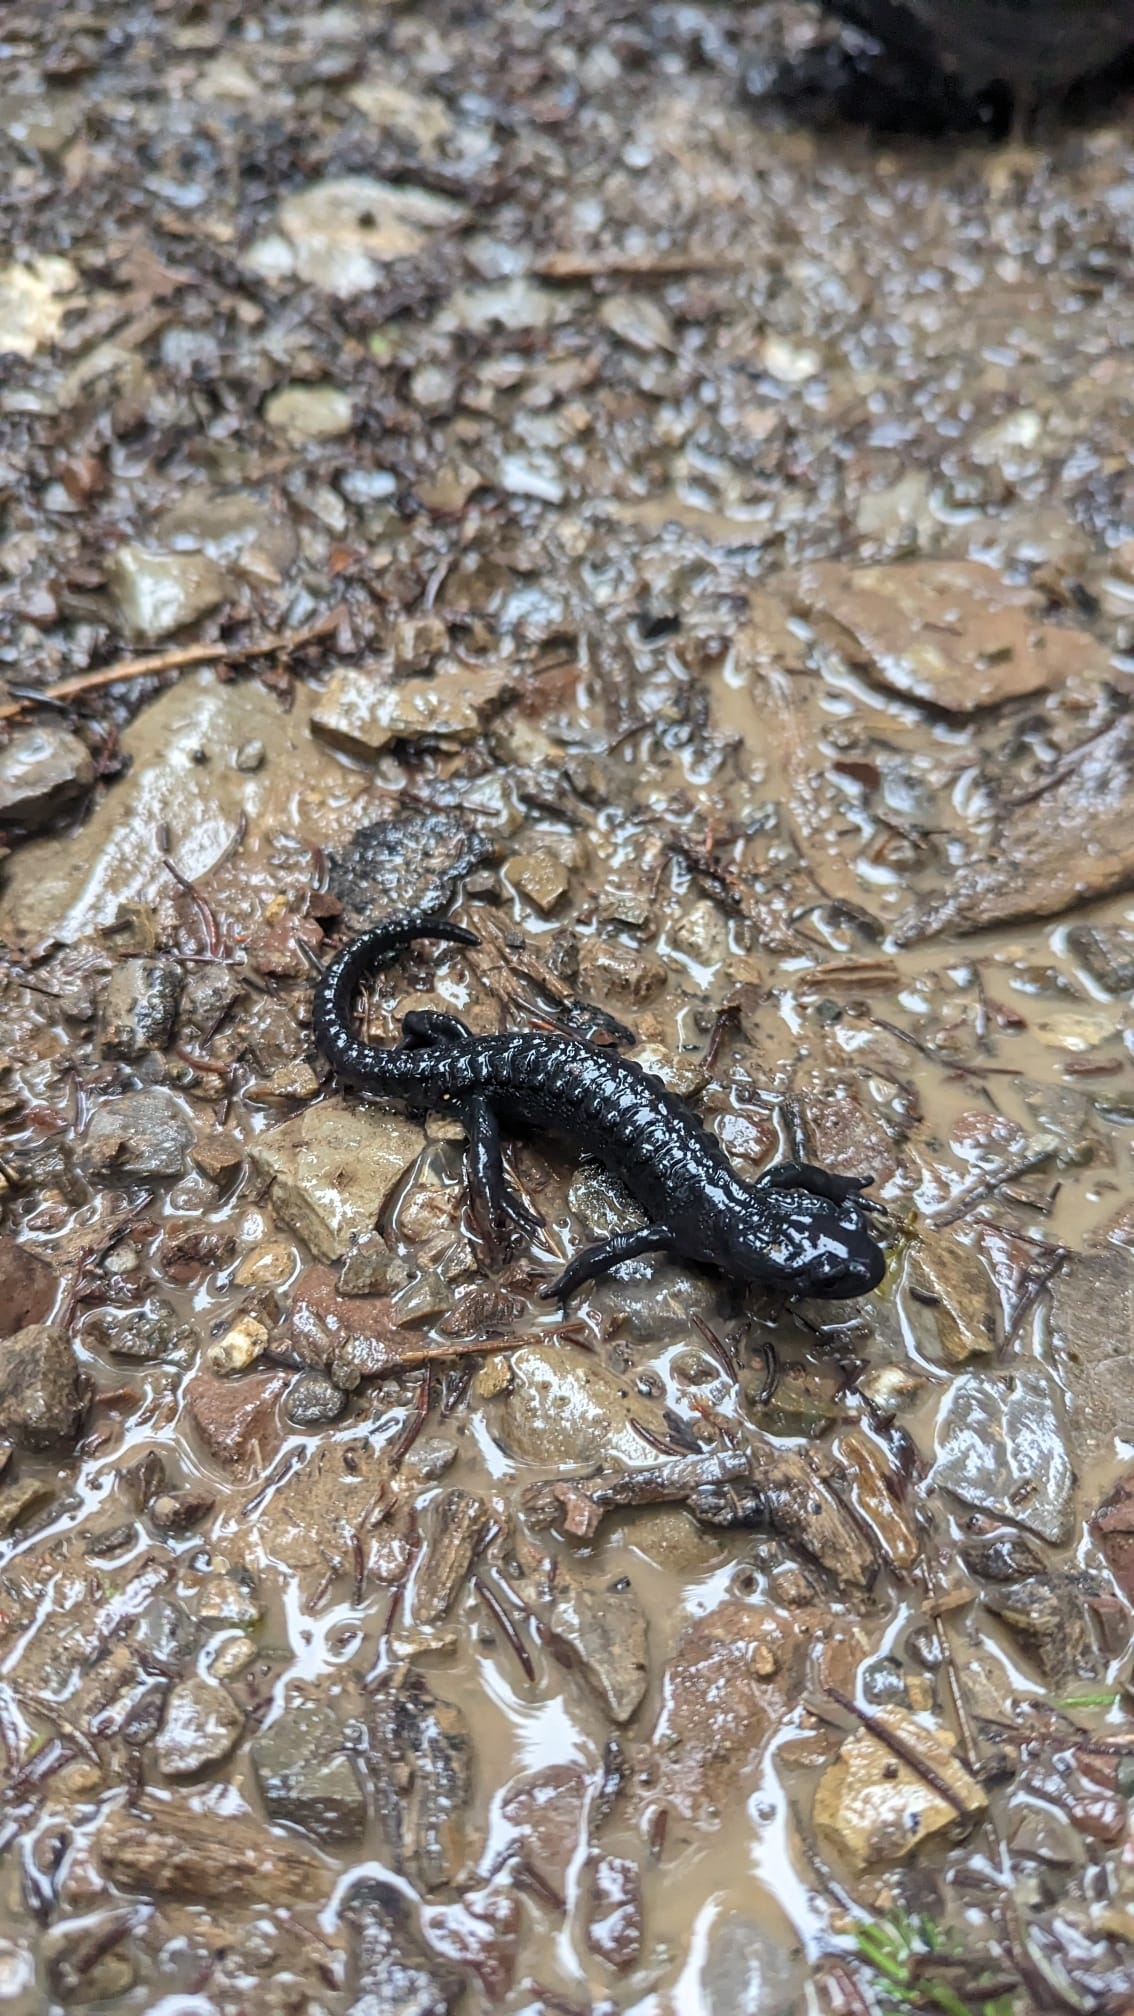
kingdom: Animalia
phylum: Chordata
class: Amphibia
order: Caudata
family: Salamandridae
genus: Salamandra
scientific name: Salamandra atra
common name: Alpine salamander
